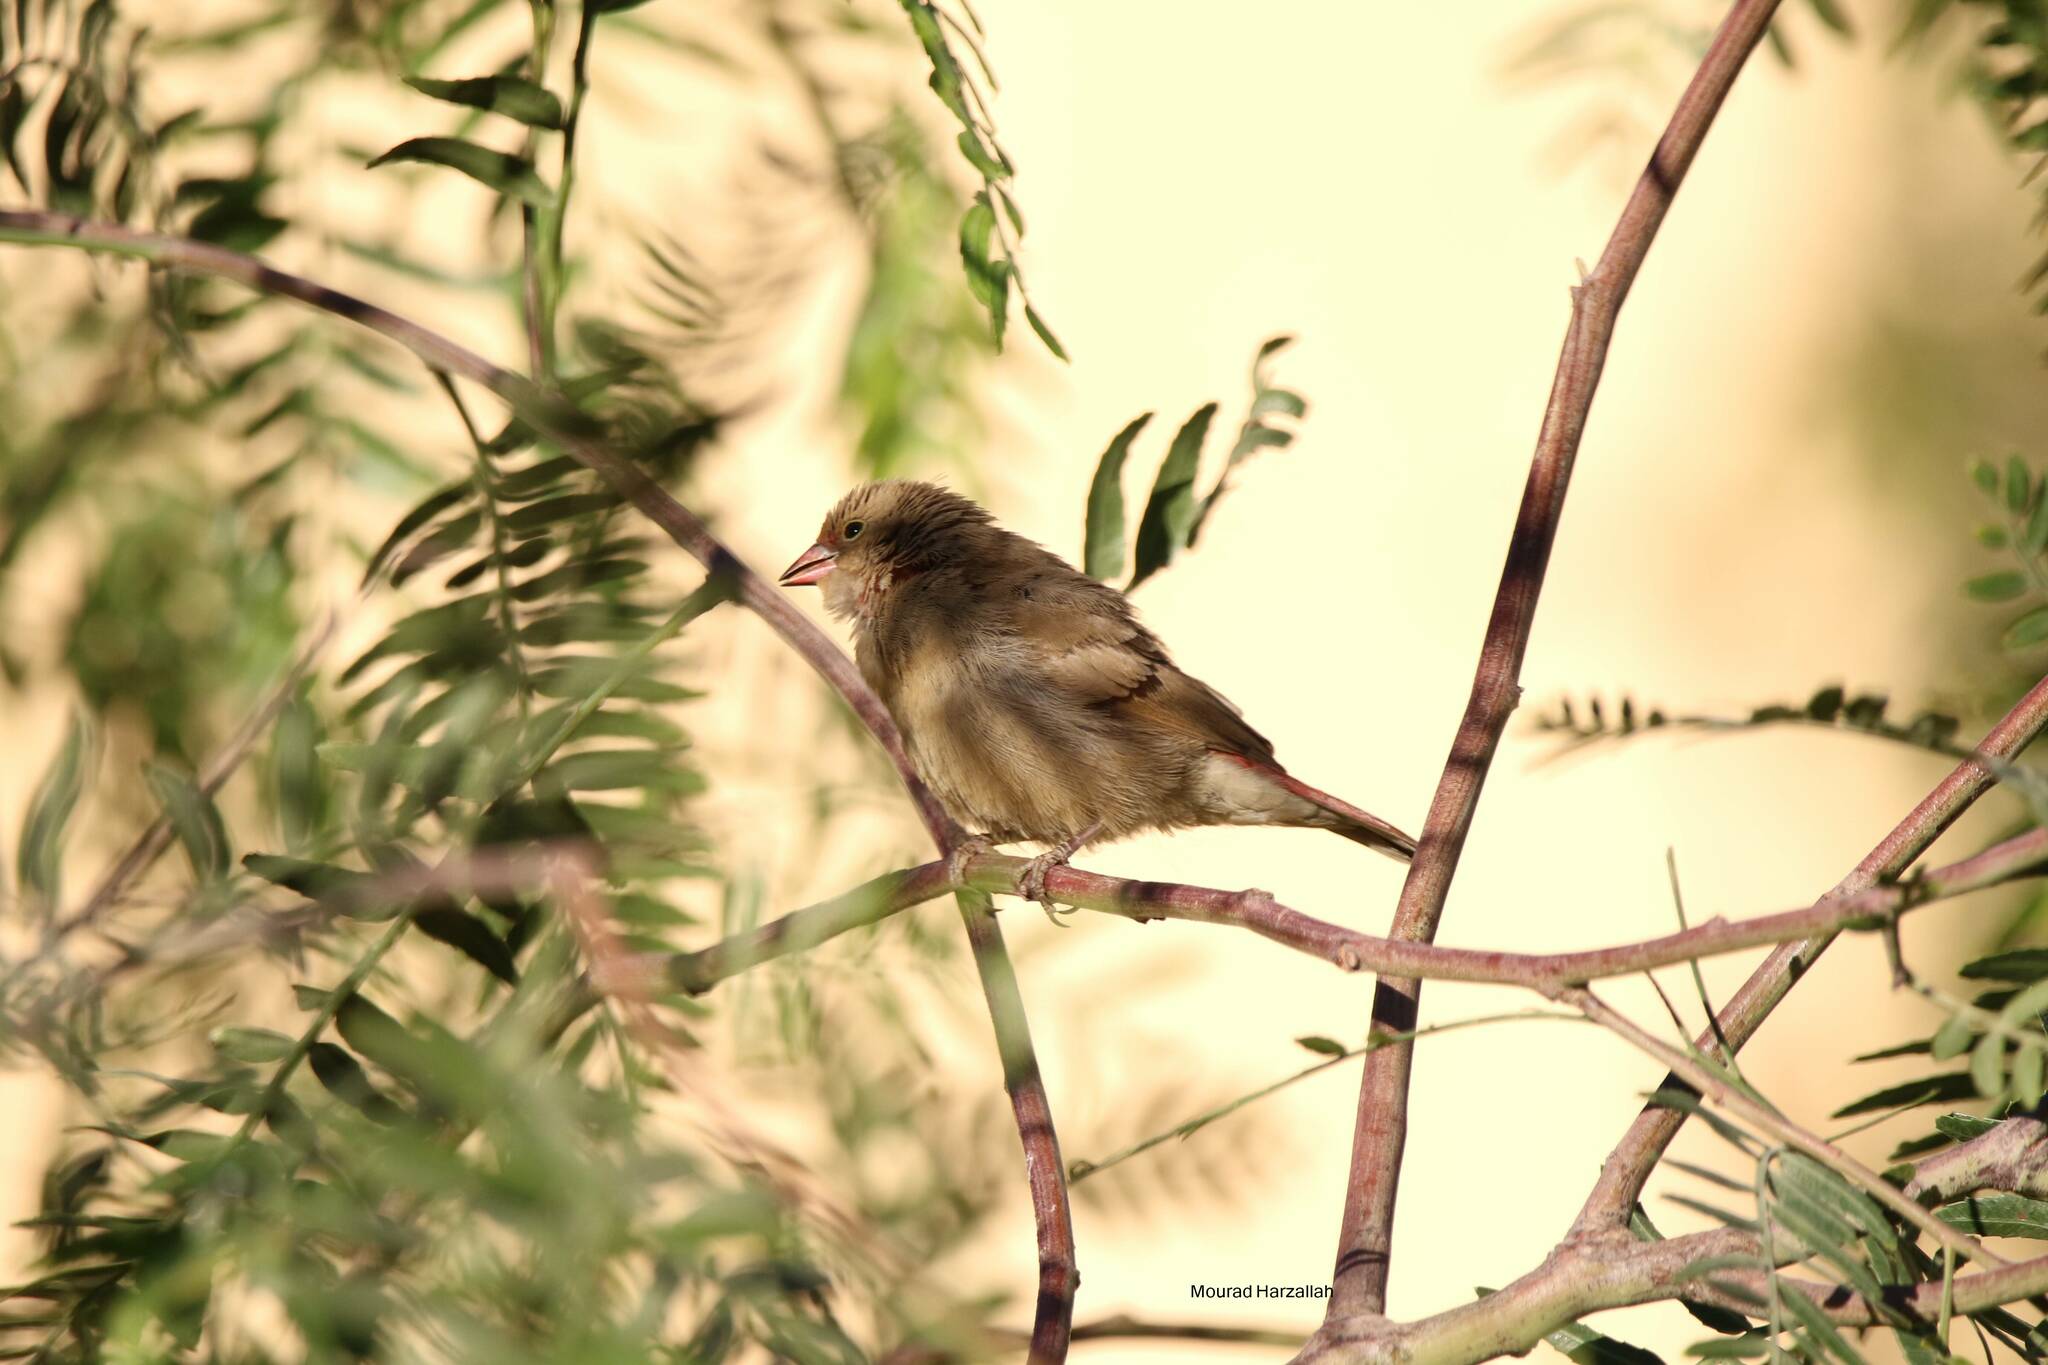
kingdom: Animalia
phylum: Chordata
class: Aves
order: Passeriformes
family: Estrildidae
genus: Lagonosticta
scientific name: Lagonosticta senegala
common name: Red-billed firefinch
